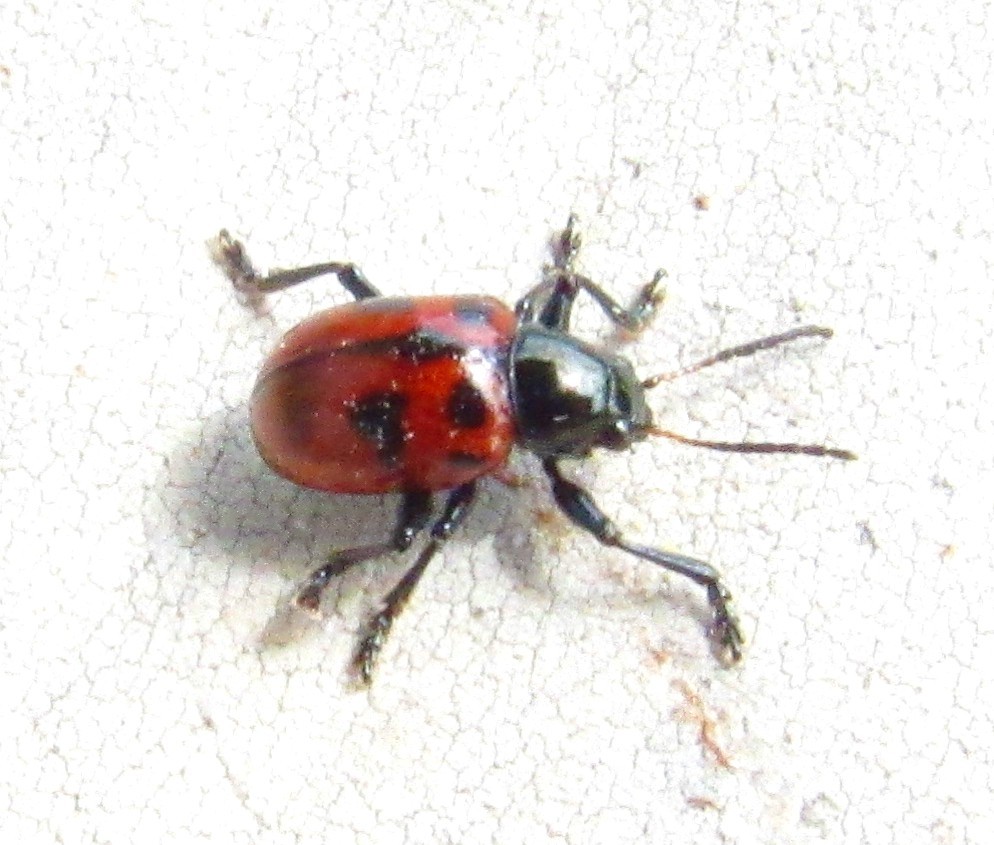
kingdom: Animalia
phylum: Arthropoda
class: Insecta
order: Coleoptera
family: Chrysomelidae
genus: Typophorus
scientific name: Typophorus
